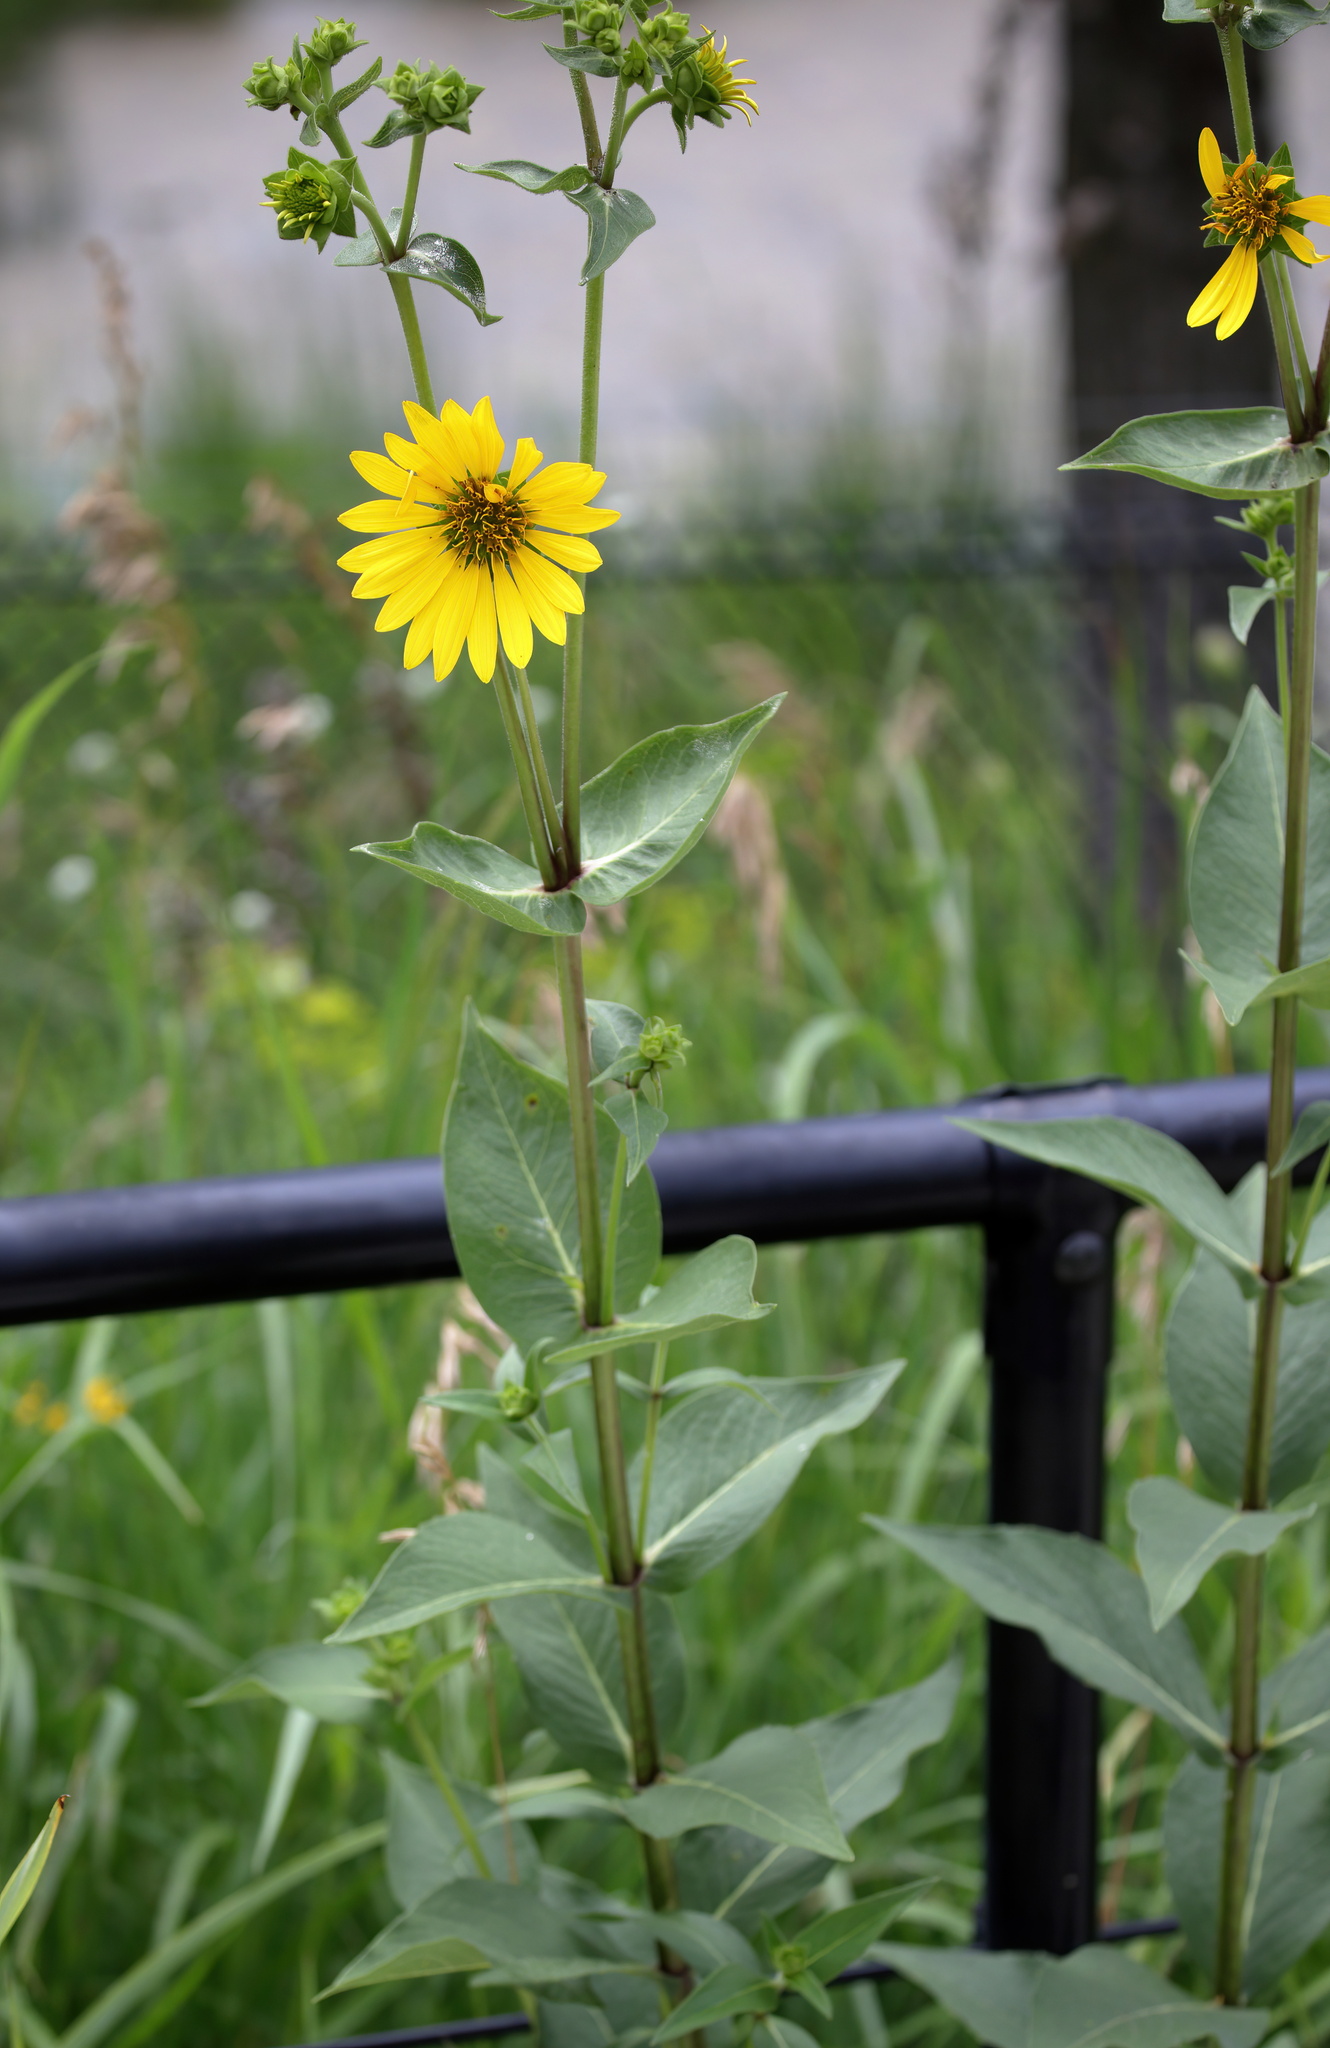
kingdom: Plantae
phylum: Tracheophyta
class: Magnoliopsida
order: Asterales
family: Asteraceae
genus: Silphium
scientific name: Silphium integrifolium
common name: Whole-leaf rosinweed
